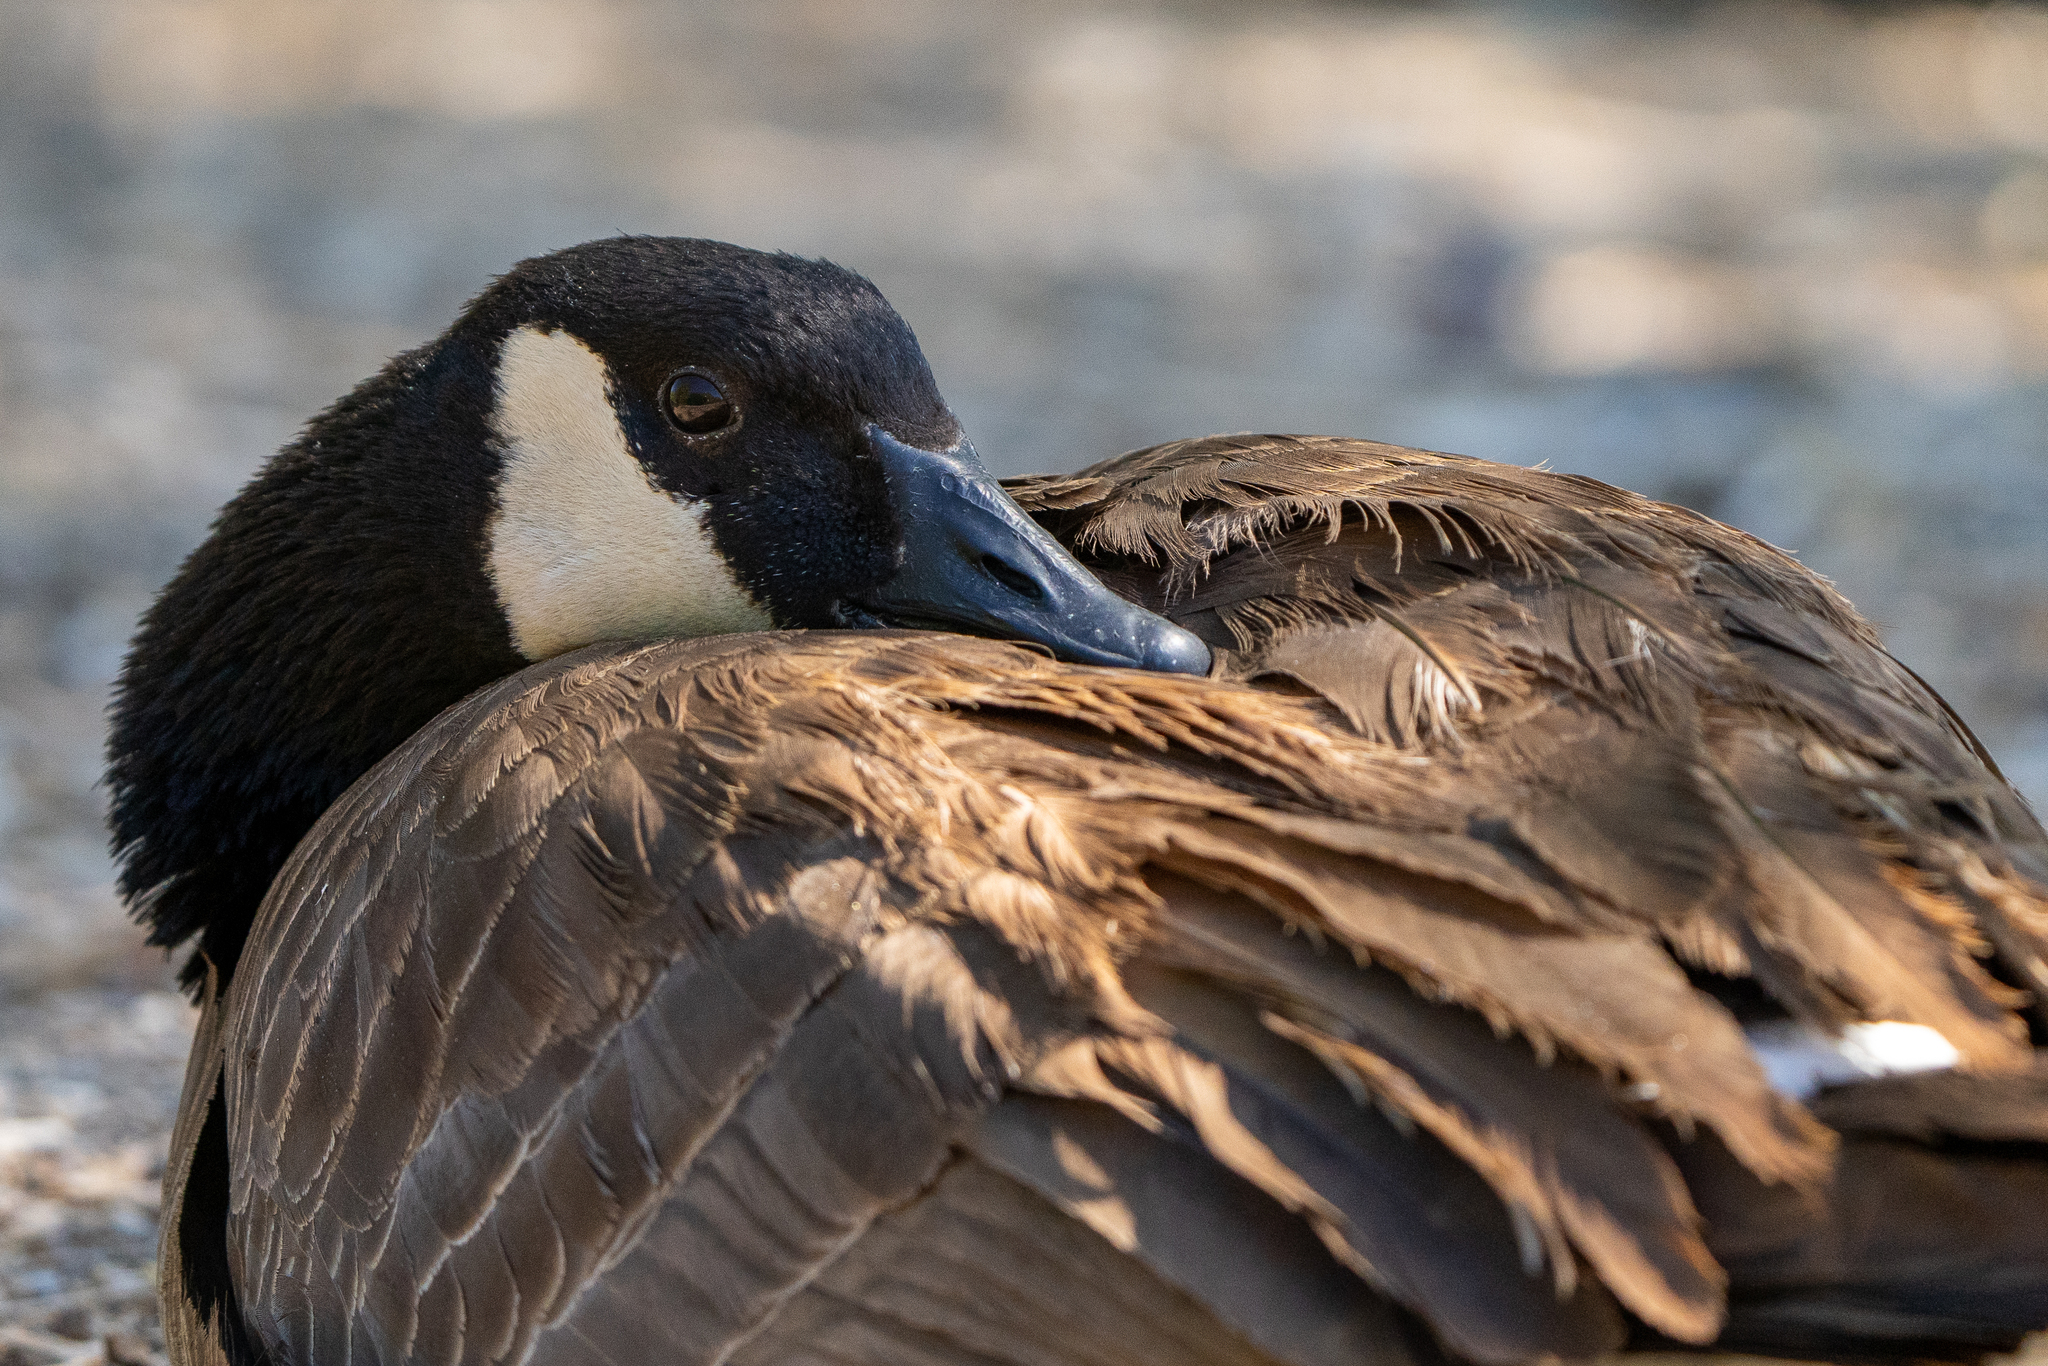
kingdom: Animalia
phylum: Chordata
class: Aves
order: Anseriformes
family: Anatidae
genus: Branta
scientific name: Branta canadensis
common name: Canada goose
